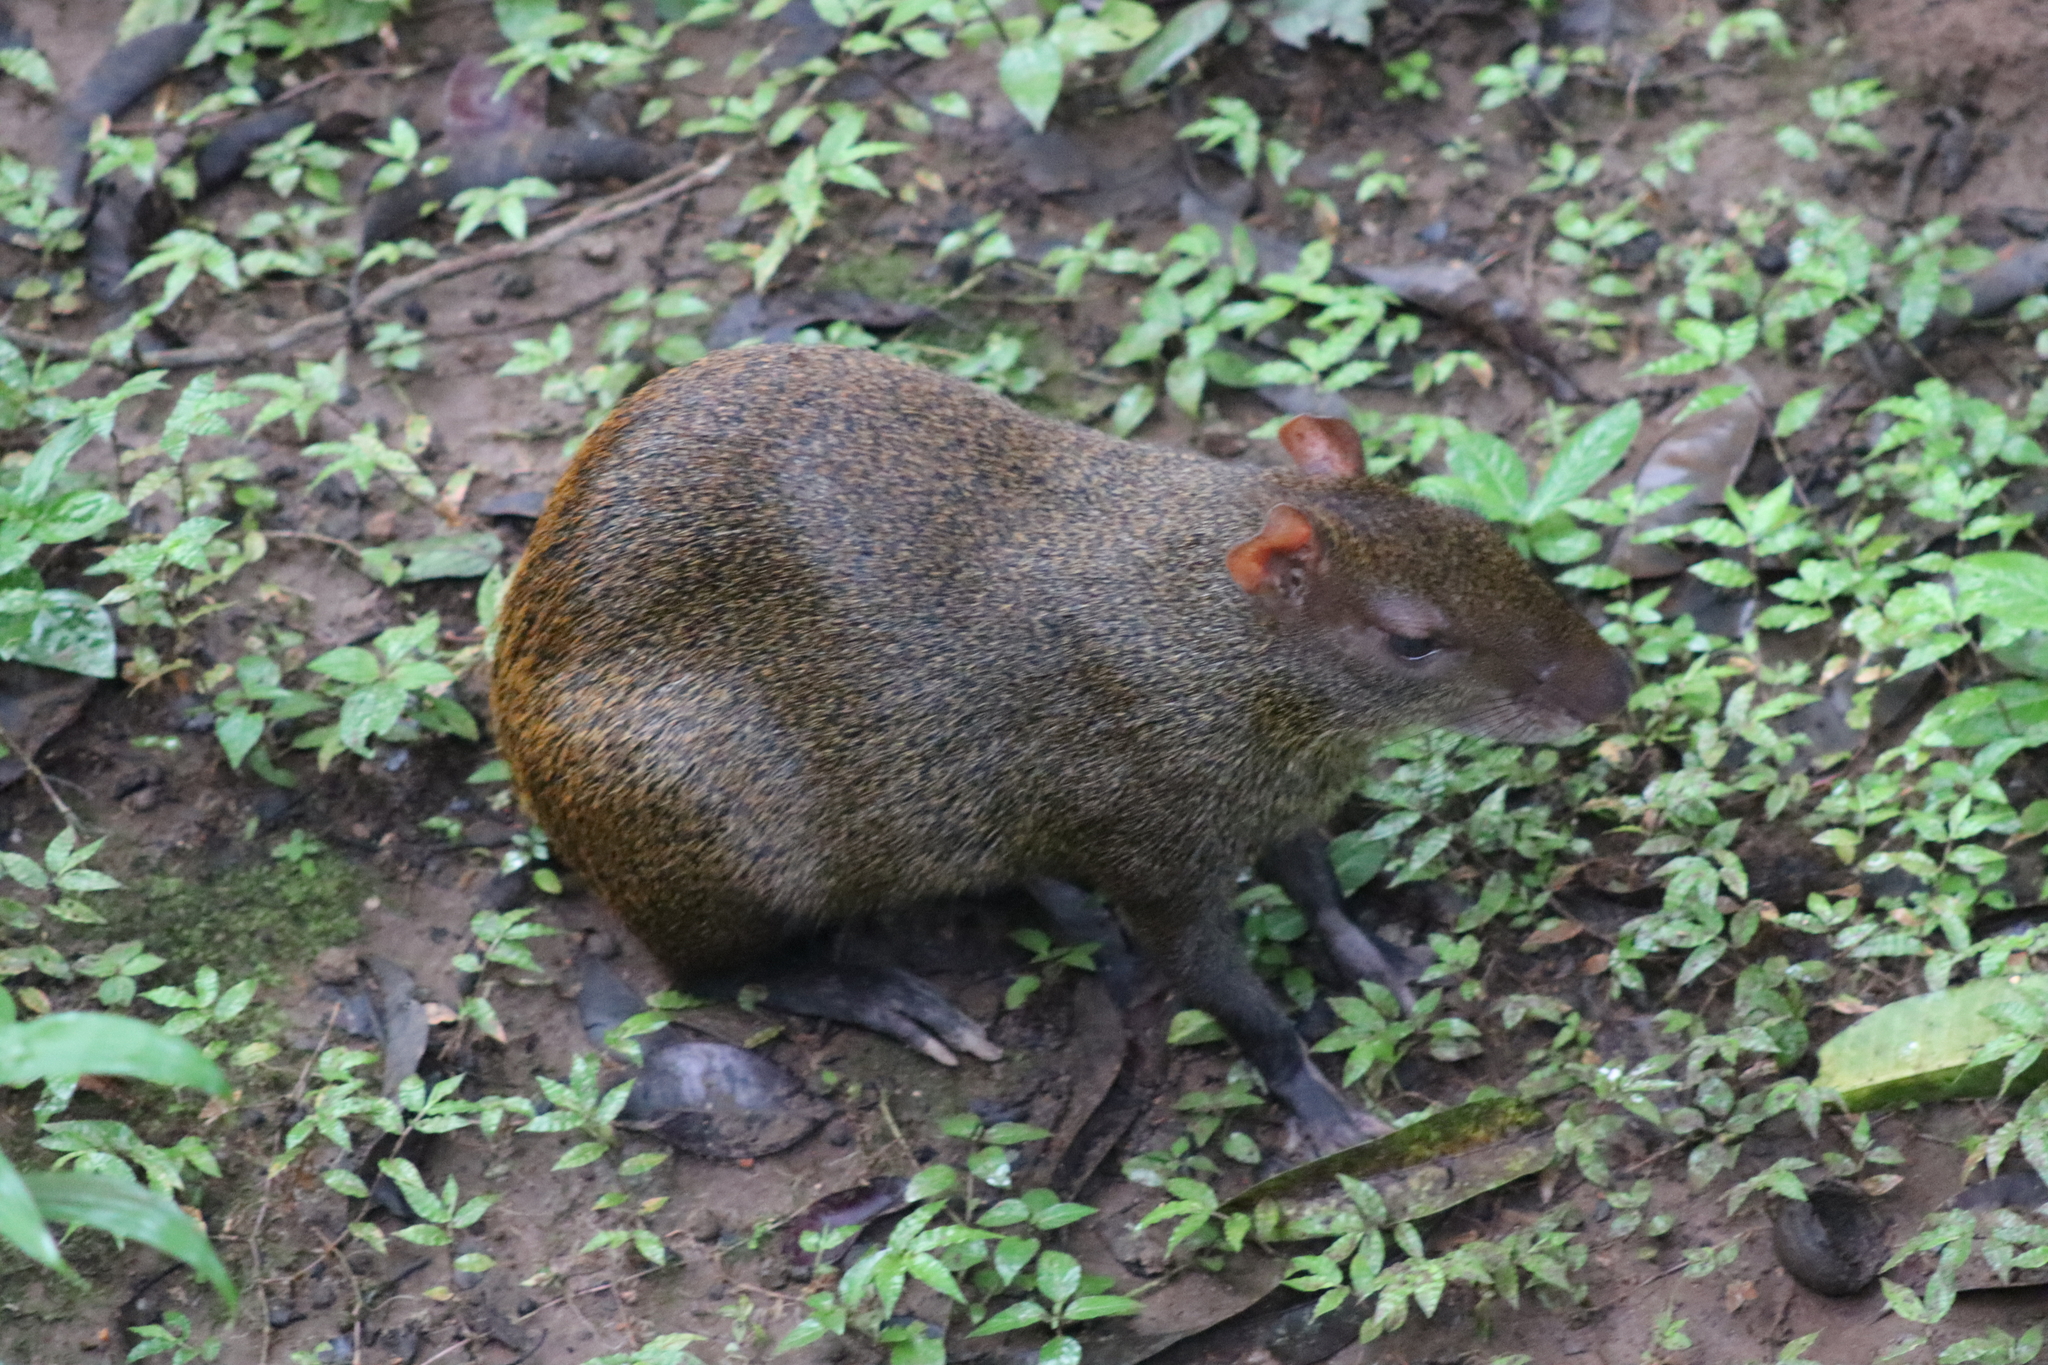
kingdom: Animalia
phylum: Chordata
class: Mammalia
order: Rodentia
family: Dasyproctidae
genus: Dasyprocta
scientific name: Dasyprocta punctata
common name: Central american agouti
